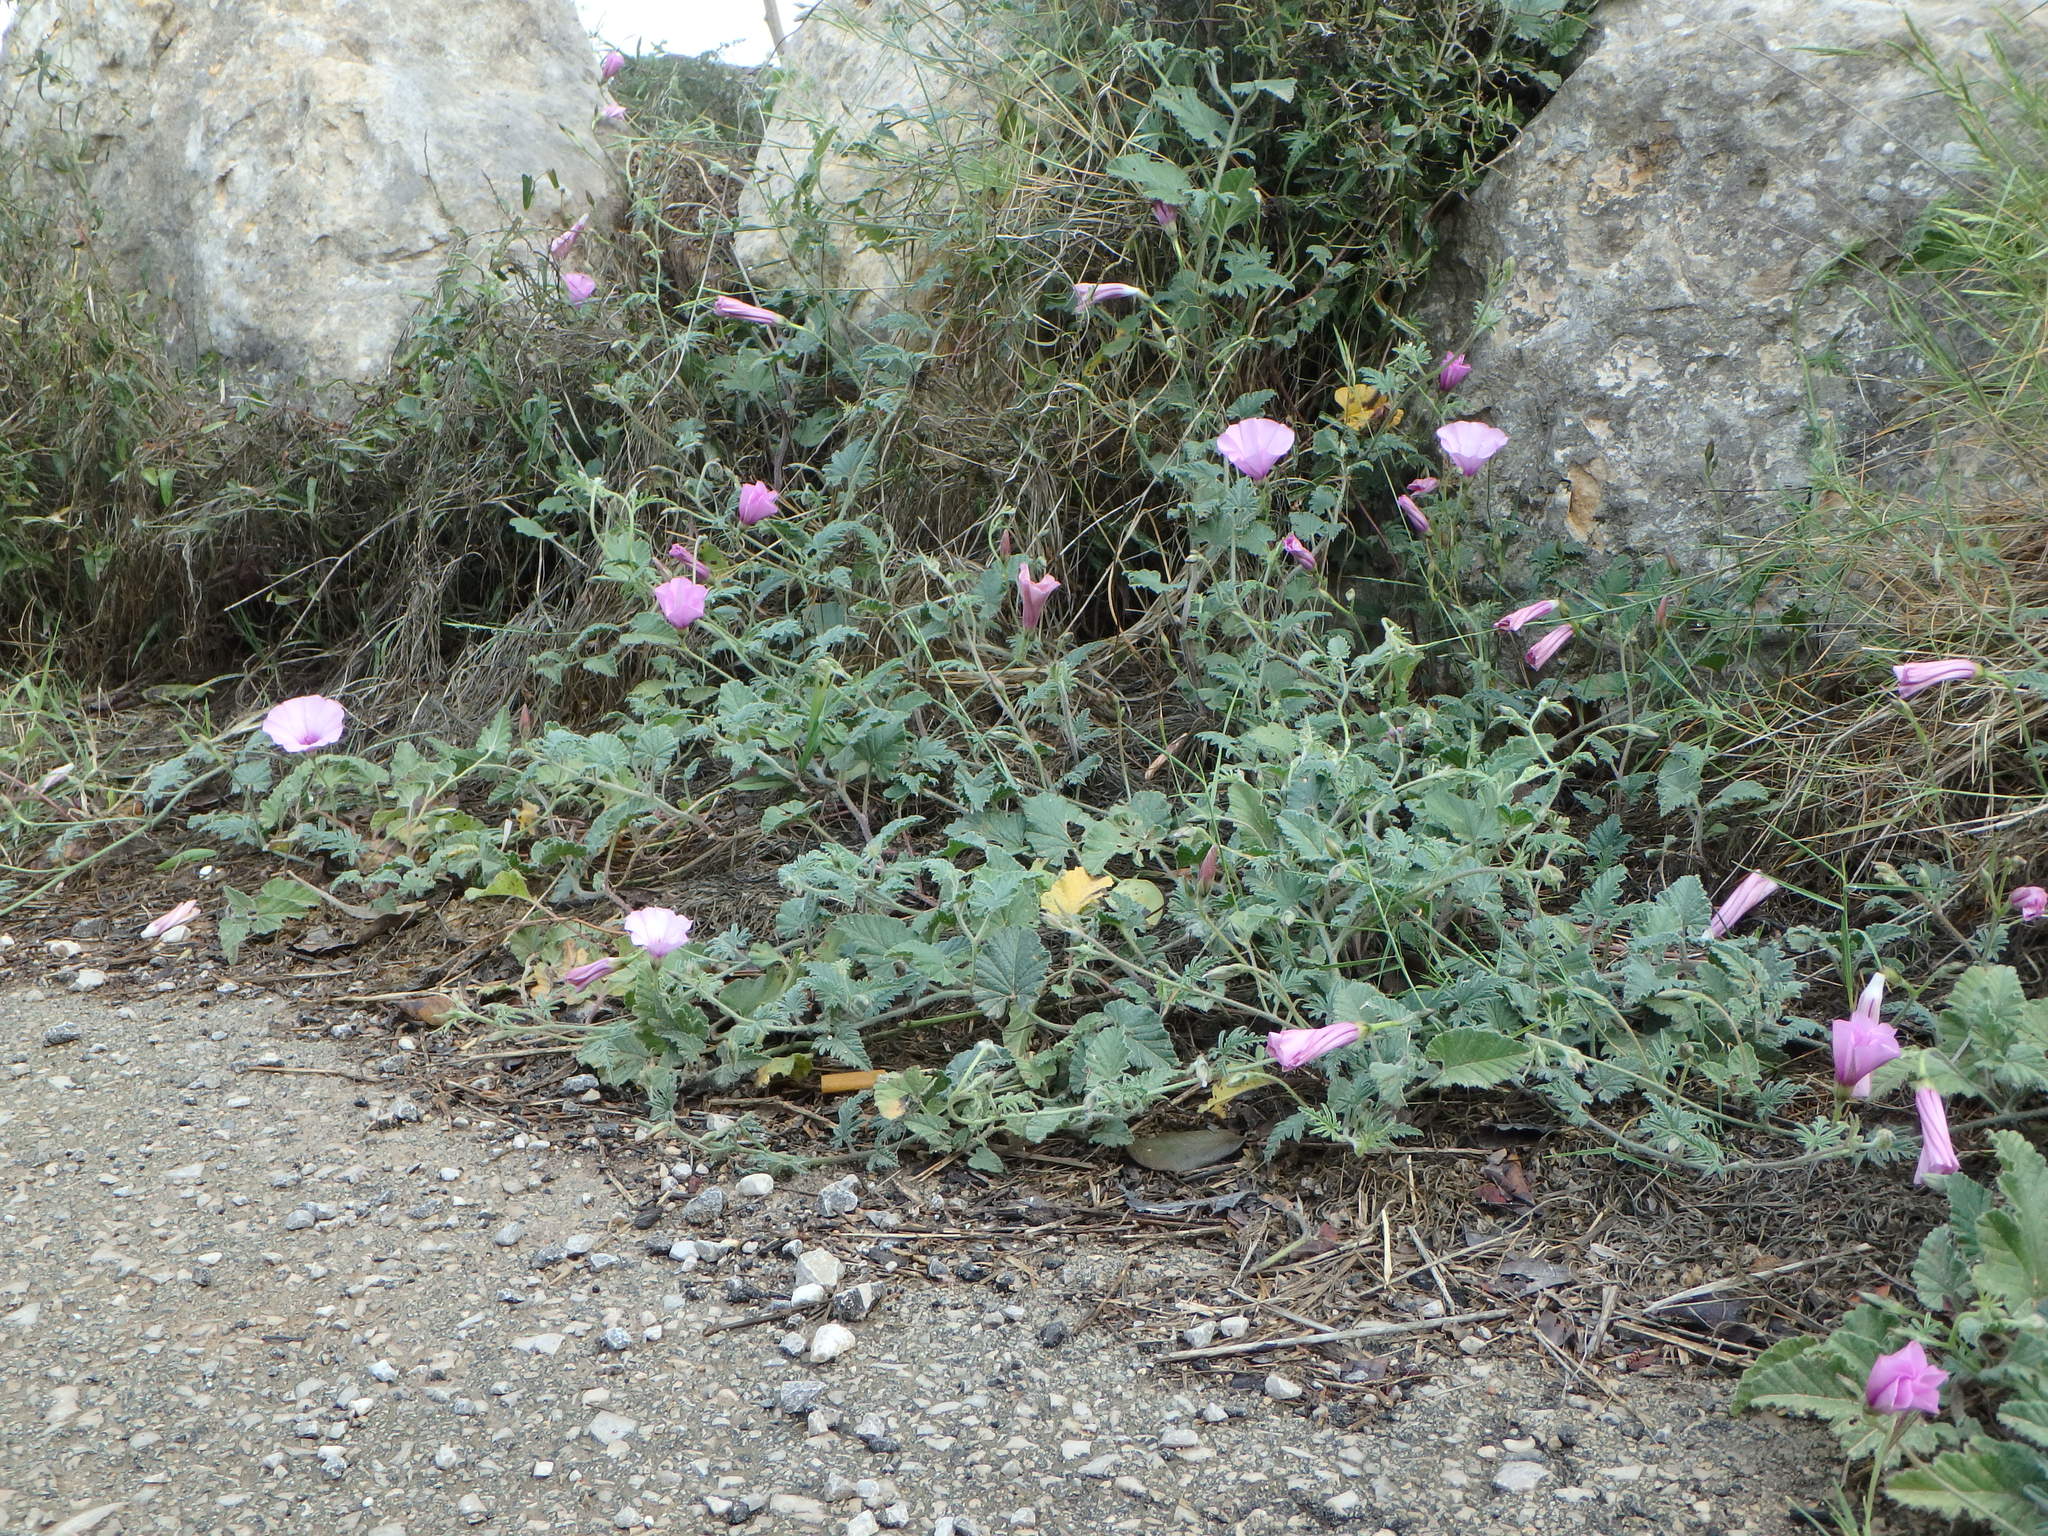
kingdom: Plantae
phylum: Tracheophyta
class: Magnoliopsida
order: Solanales
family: Convolvulaceae
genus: Convolvulus
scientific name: Convolvulus althaeoides
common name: Mallow bindweed
